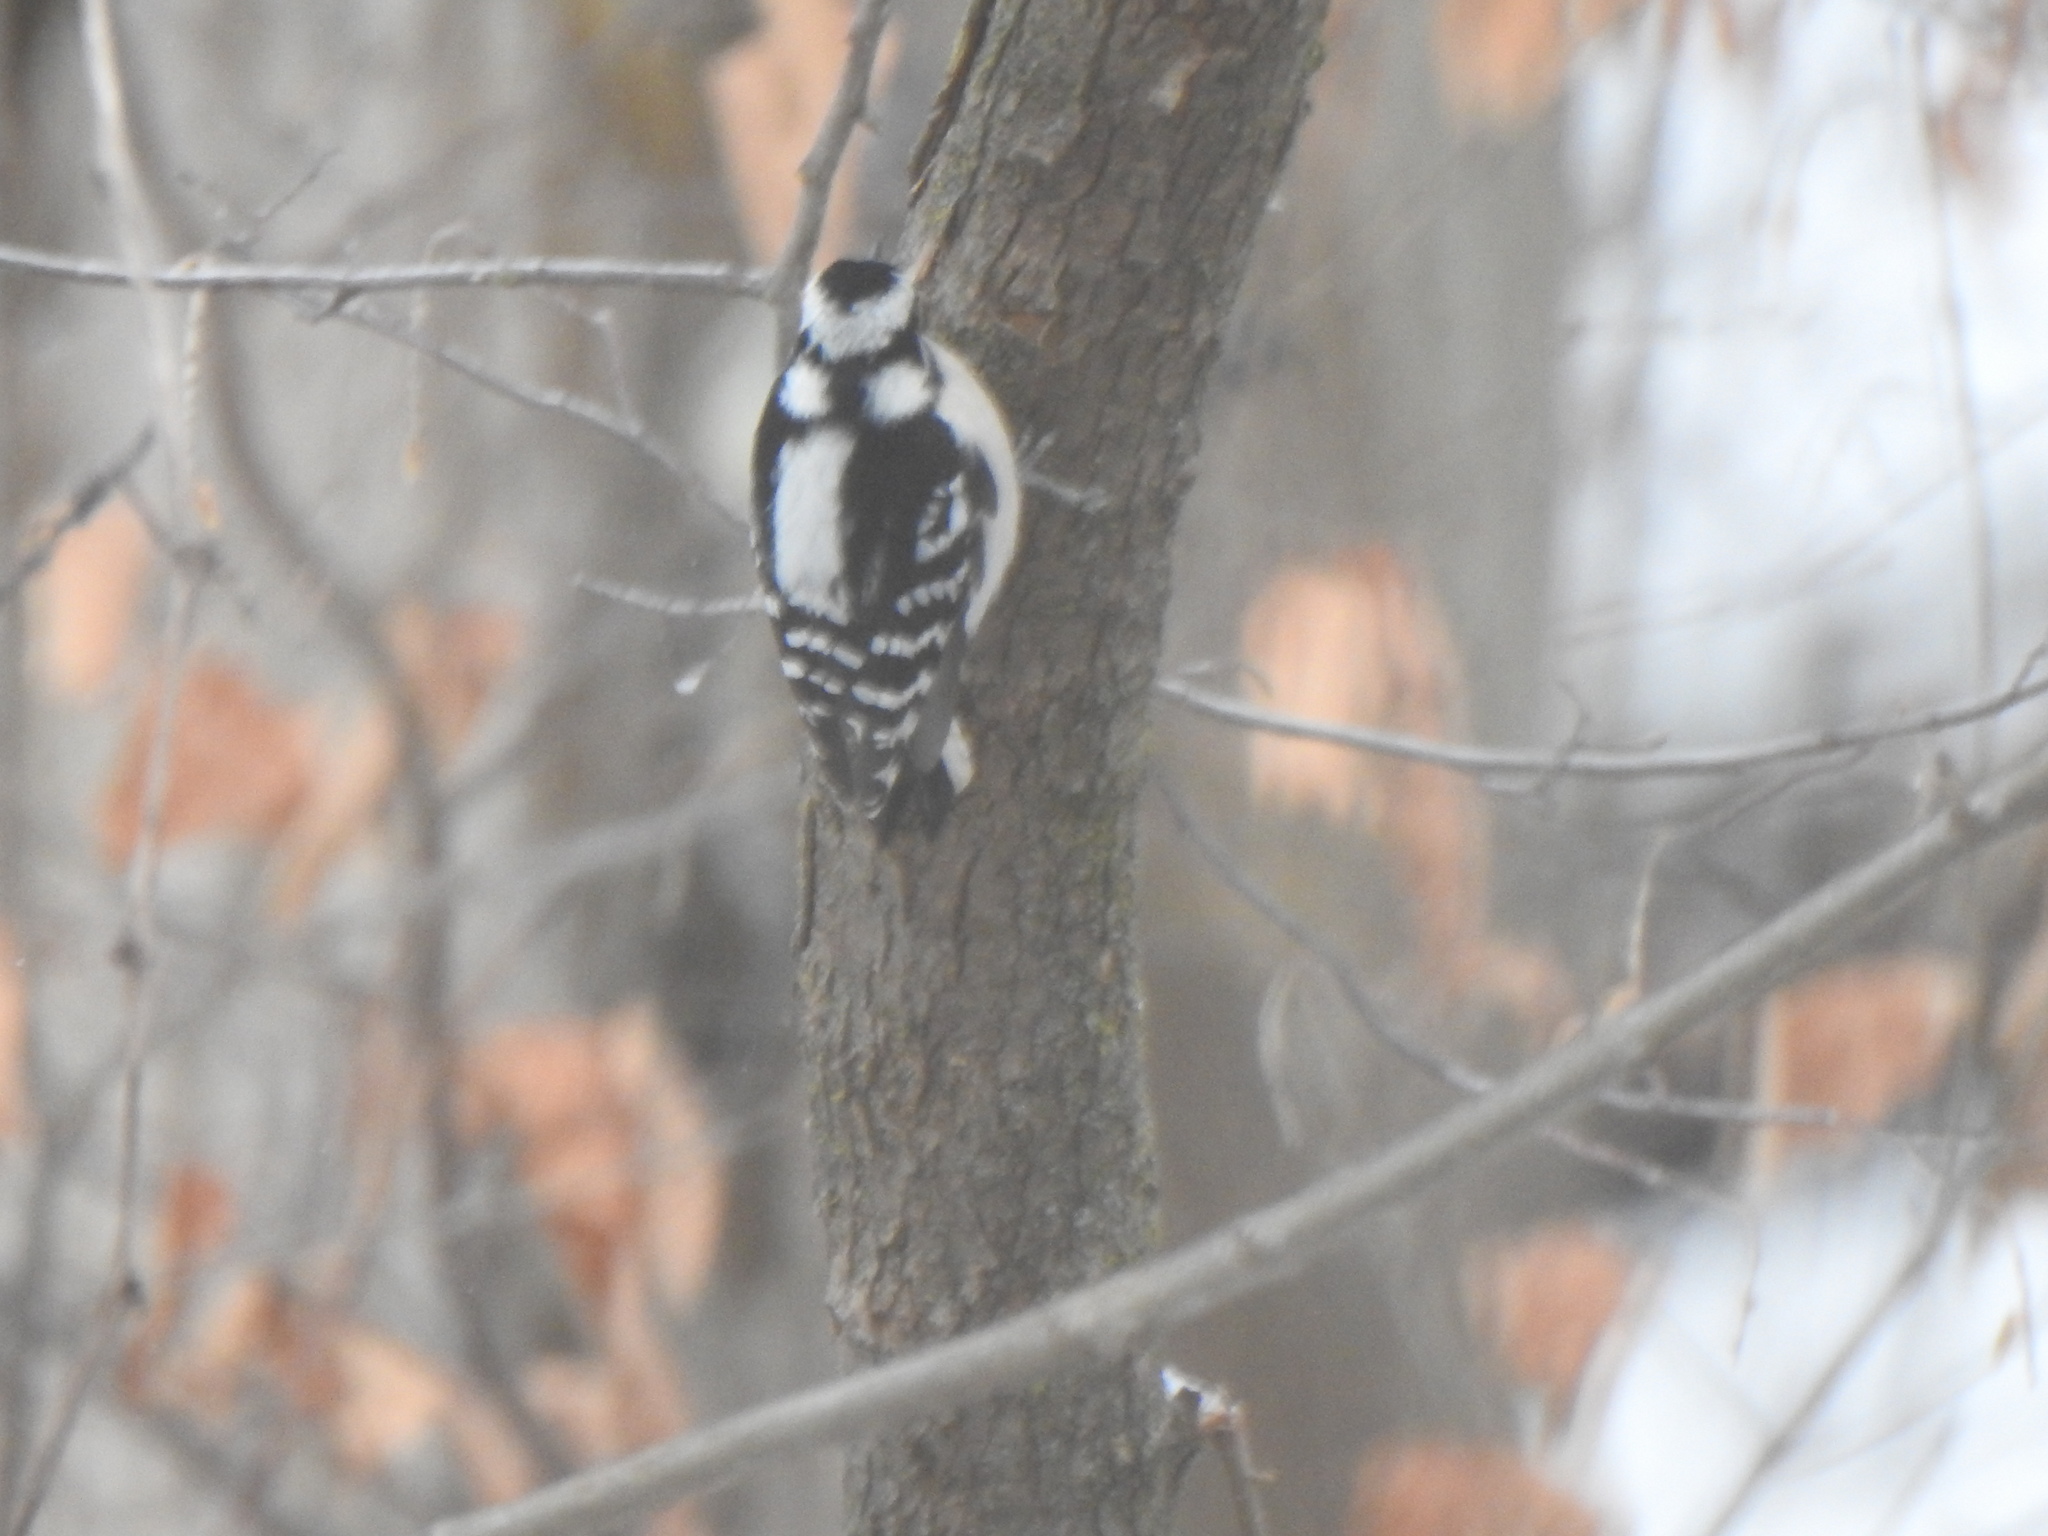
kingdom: Animalia
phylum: Chordata
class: Aves
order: Piciformes
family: Picidae
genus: Dryobates
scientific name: Dryobates pubescens
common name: Downy woodpecker
